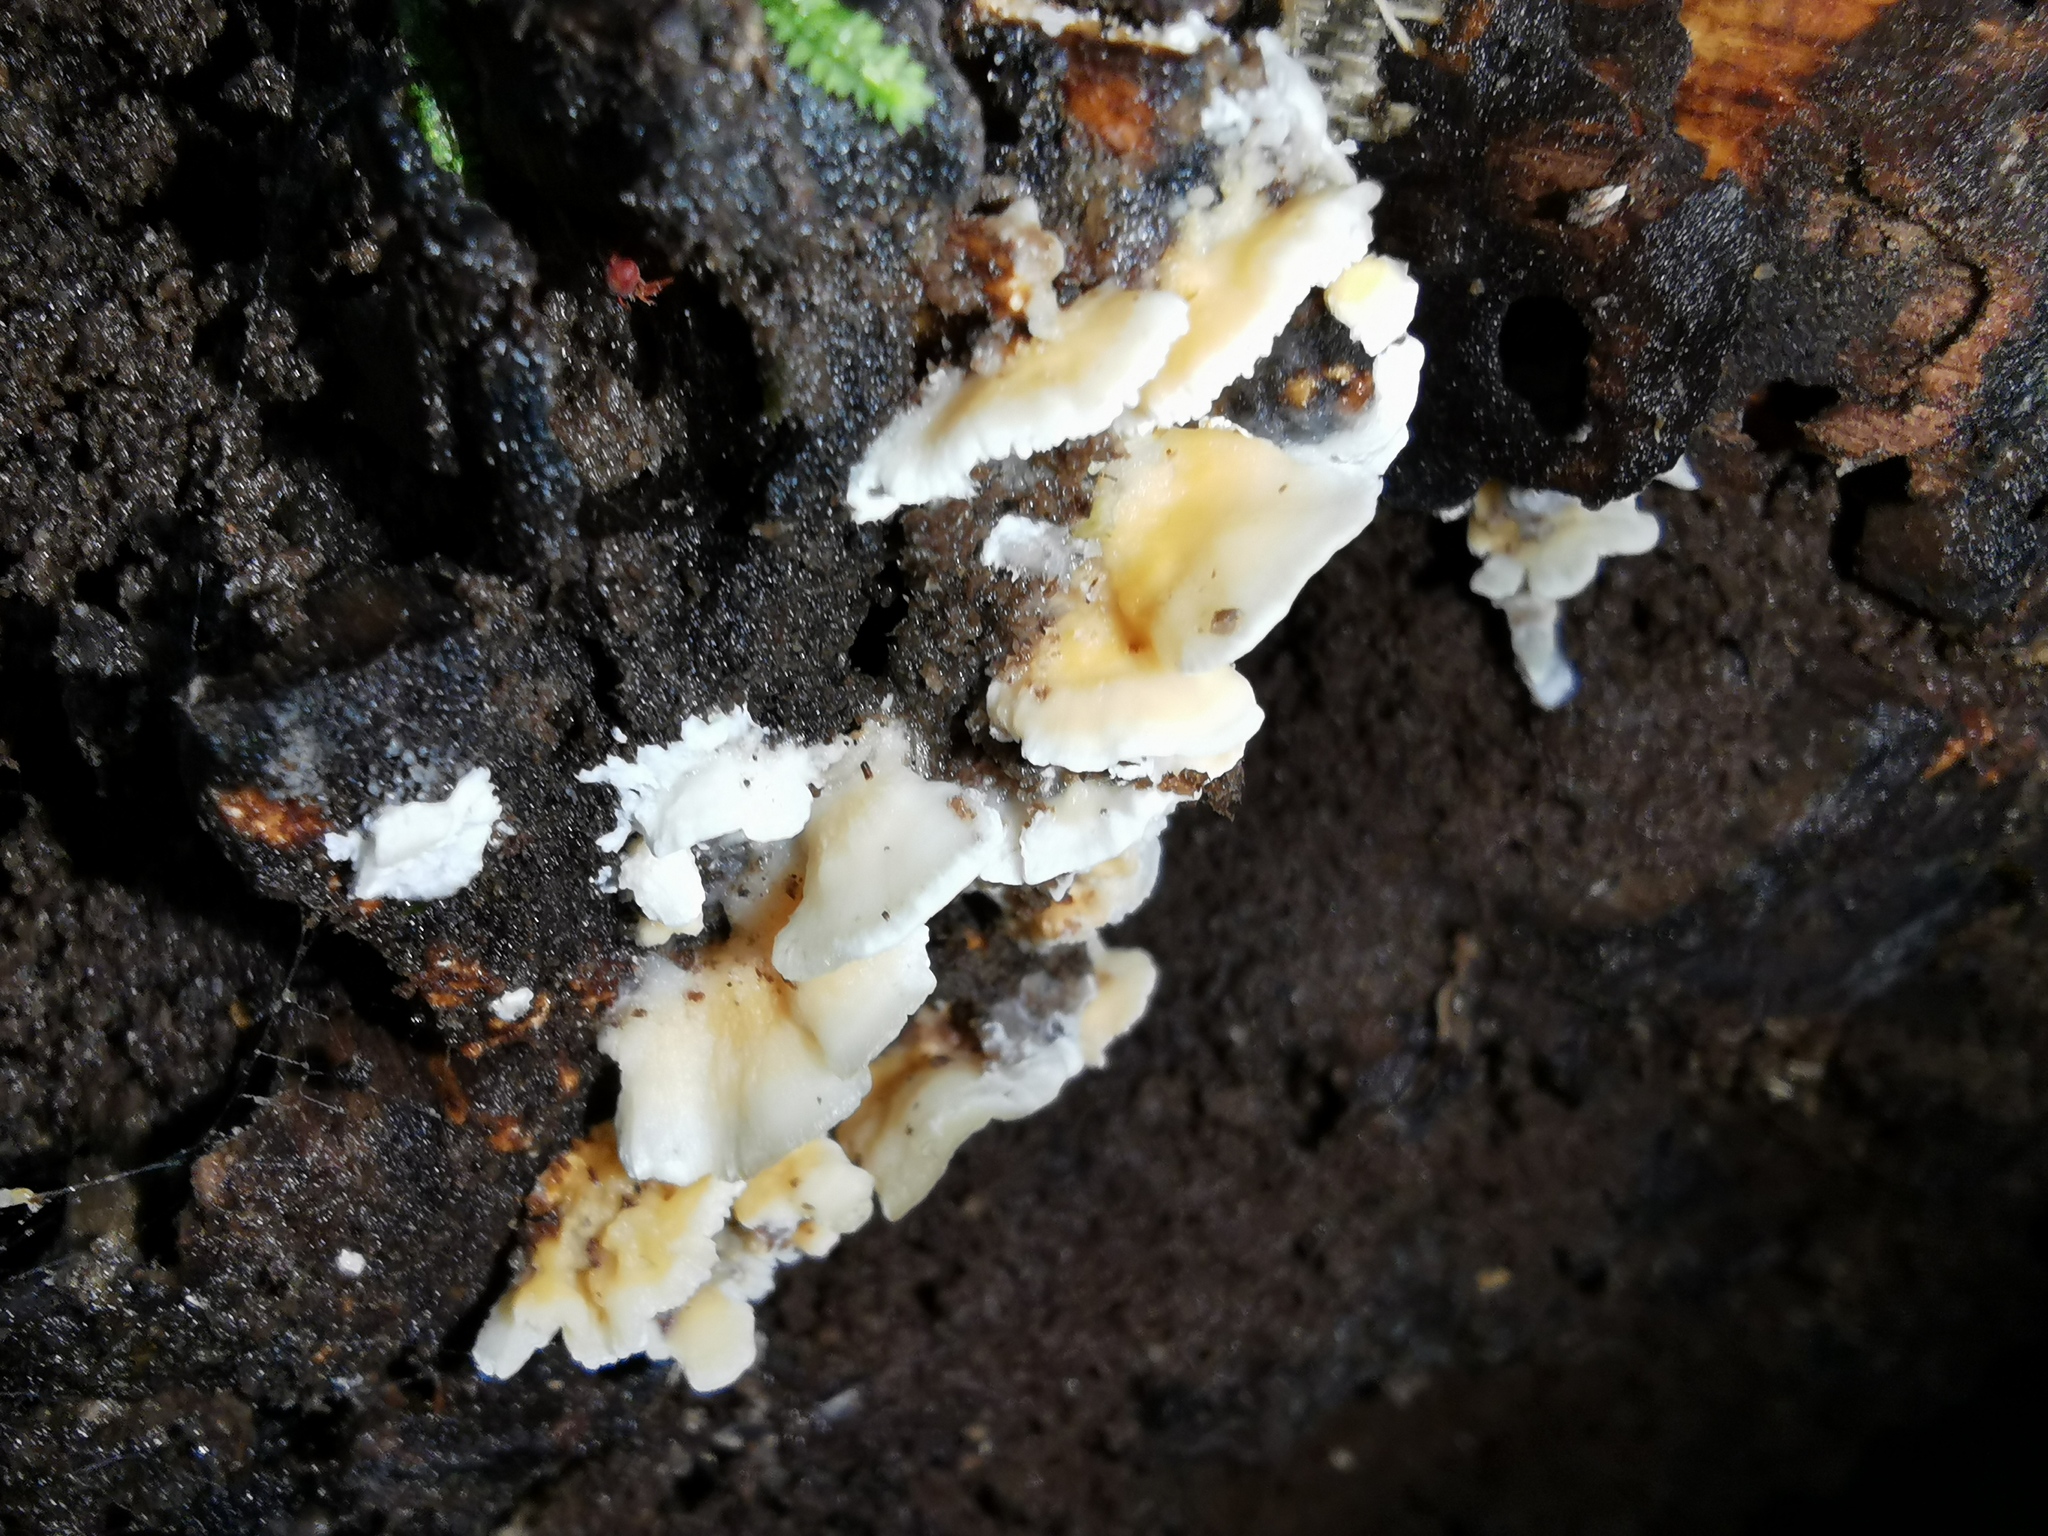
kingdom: Fungi
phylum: Basidiomycota
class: Agaricomycetes
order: Polyporales
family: Cerrenaceae
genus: Cerrena
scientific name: Cerrena zonata
